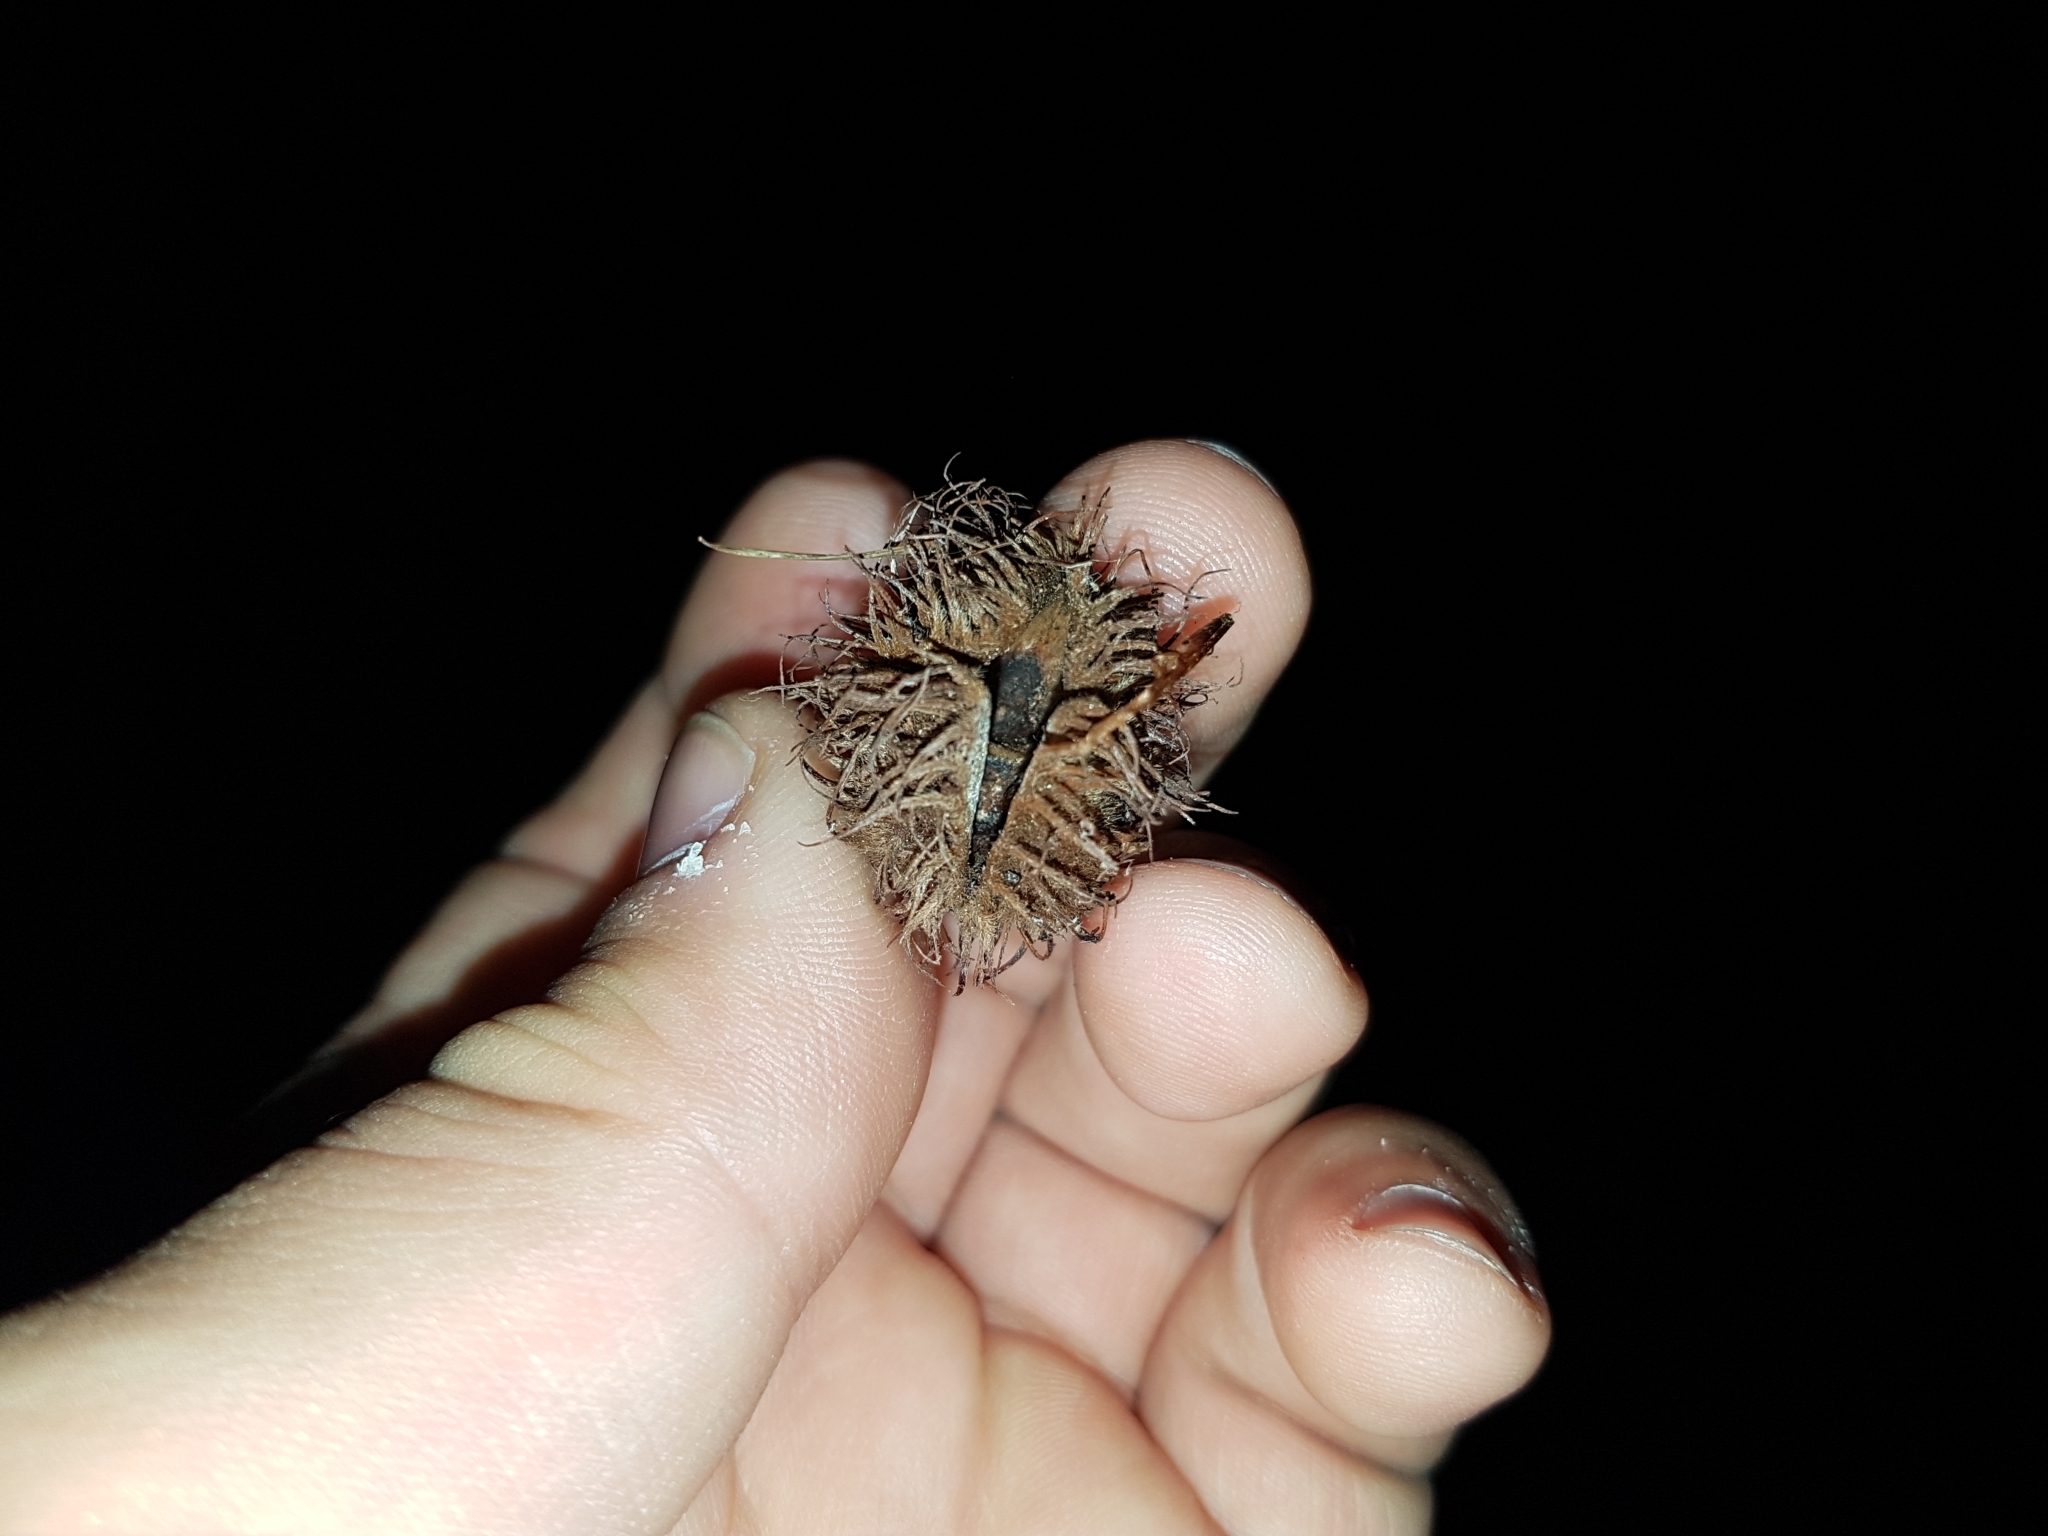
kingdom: Plantae
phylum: Tracheophyta
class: Magnoliopsida
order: Fagales
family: Fagaceae
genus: Fagus
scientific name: Fagus sylvatica
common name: Beech
